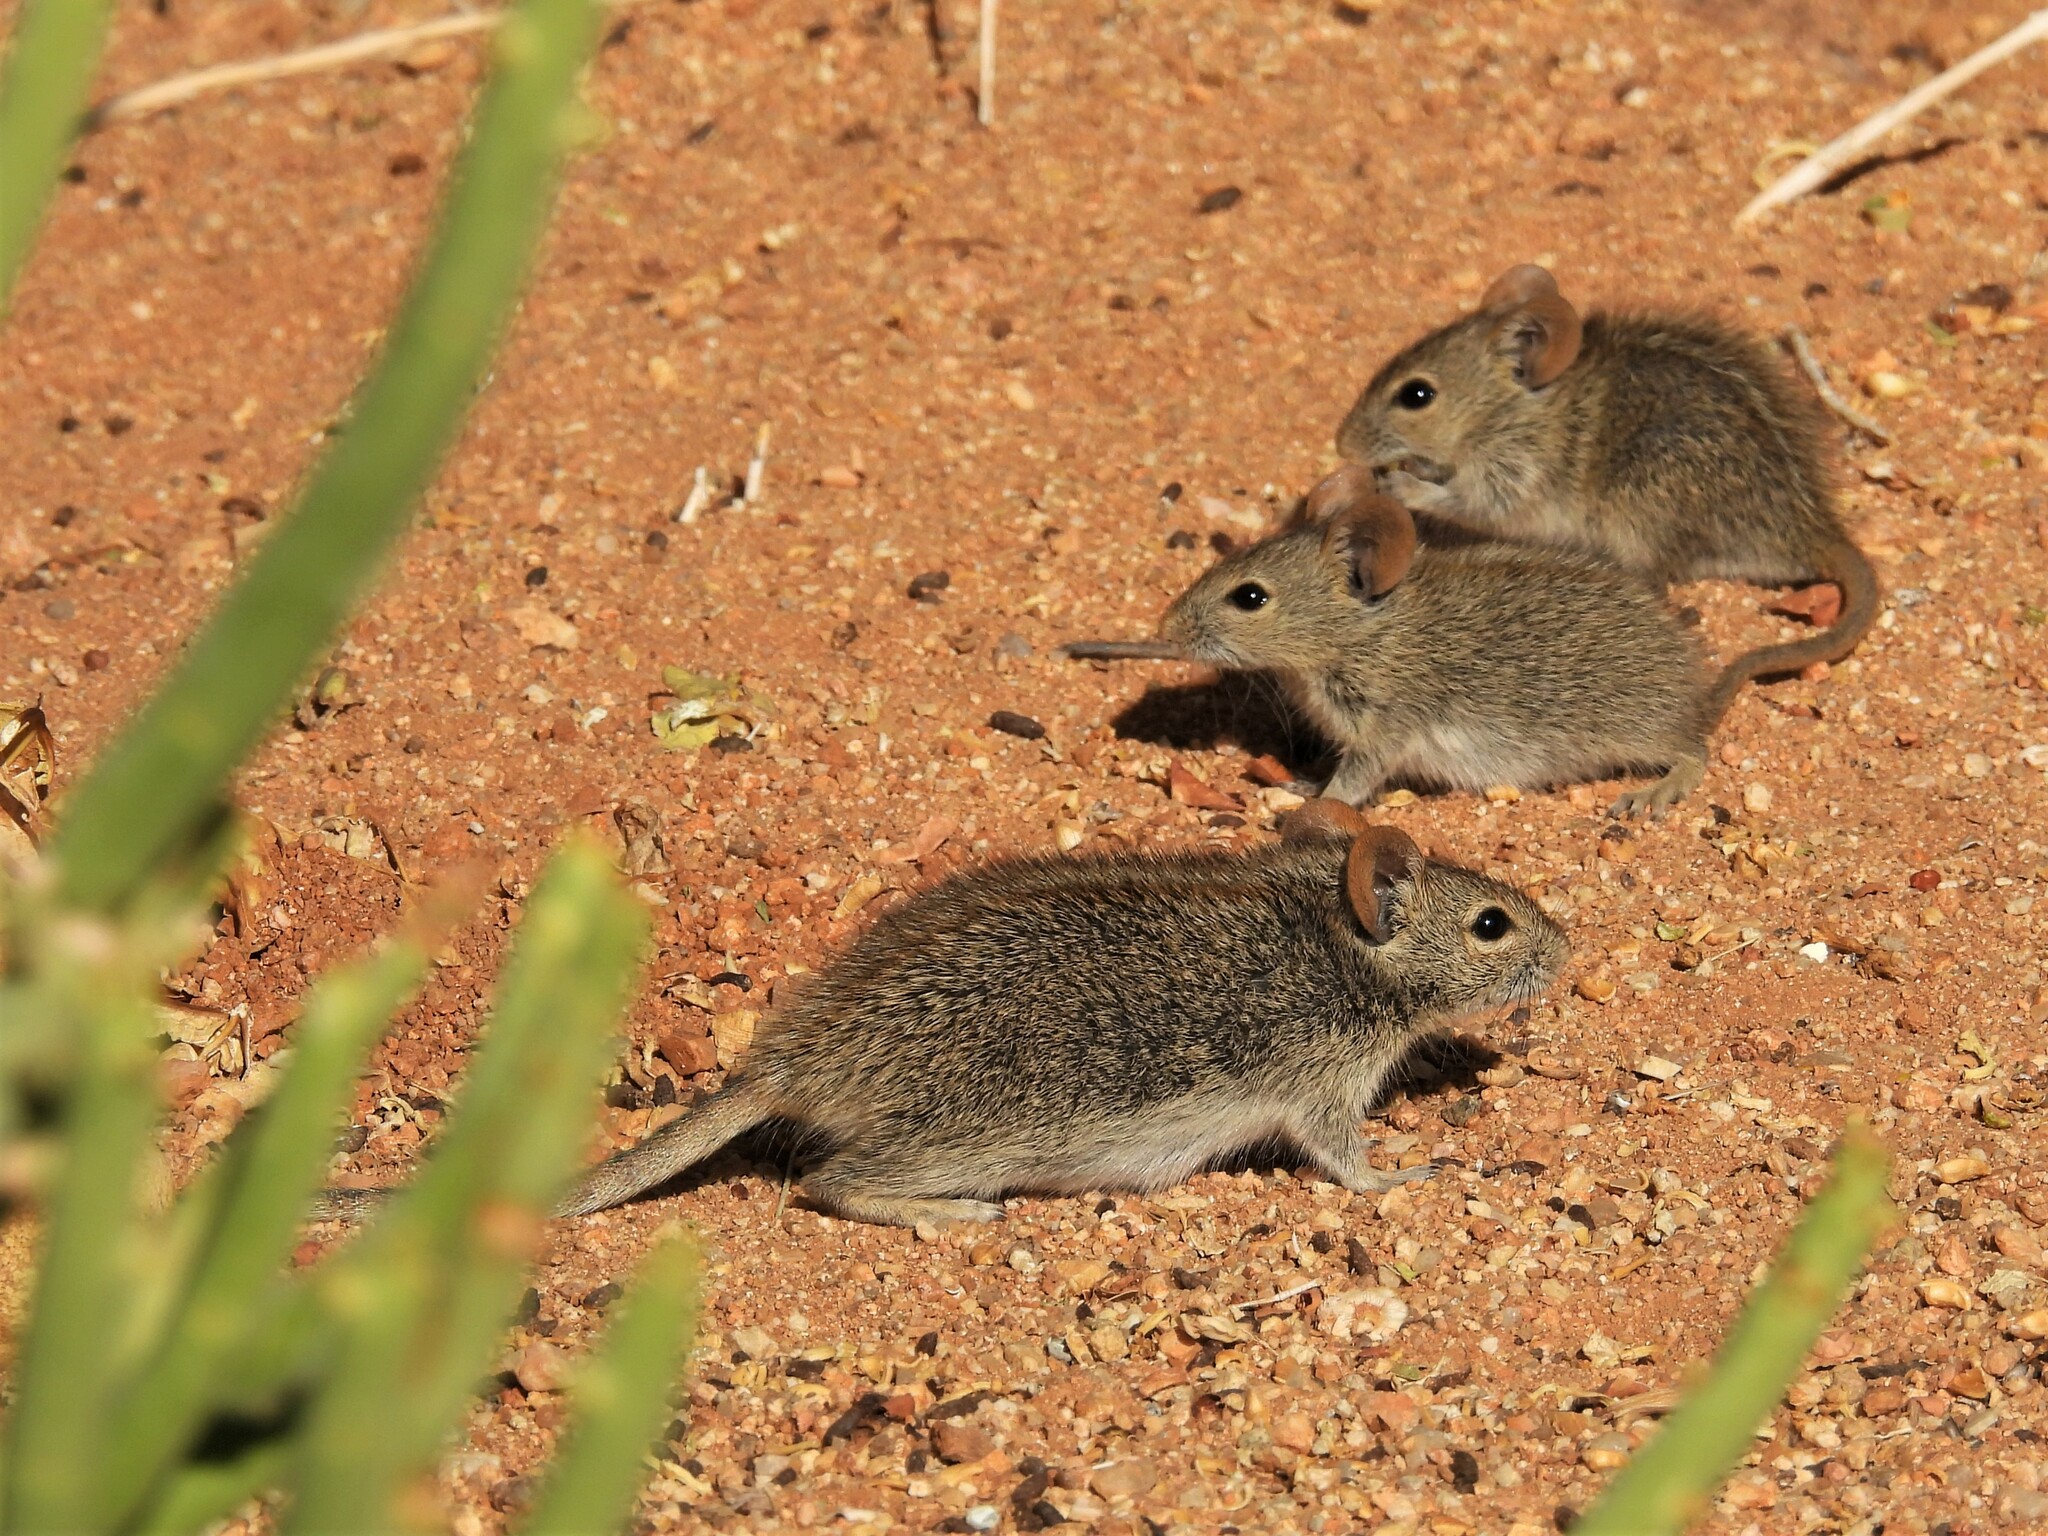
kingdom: Animalia
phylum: Chordata
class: Mammalia
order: Rodentia
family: Muridae
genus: Rhabdomys
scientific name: Rhabdomys pumilio
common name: Xeric four-striped grass rat
